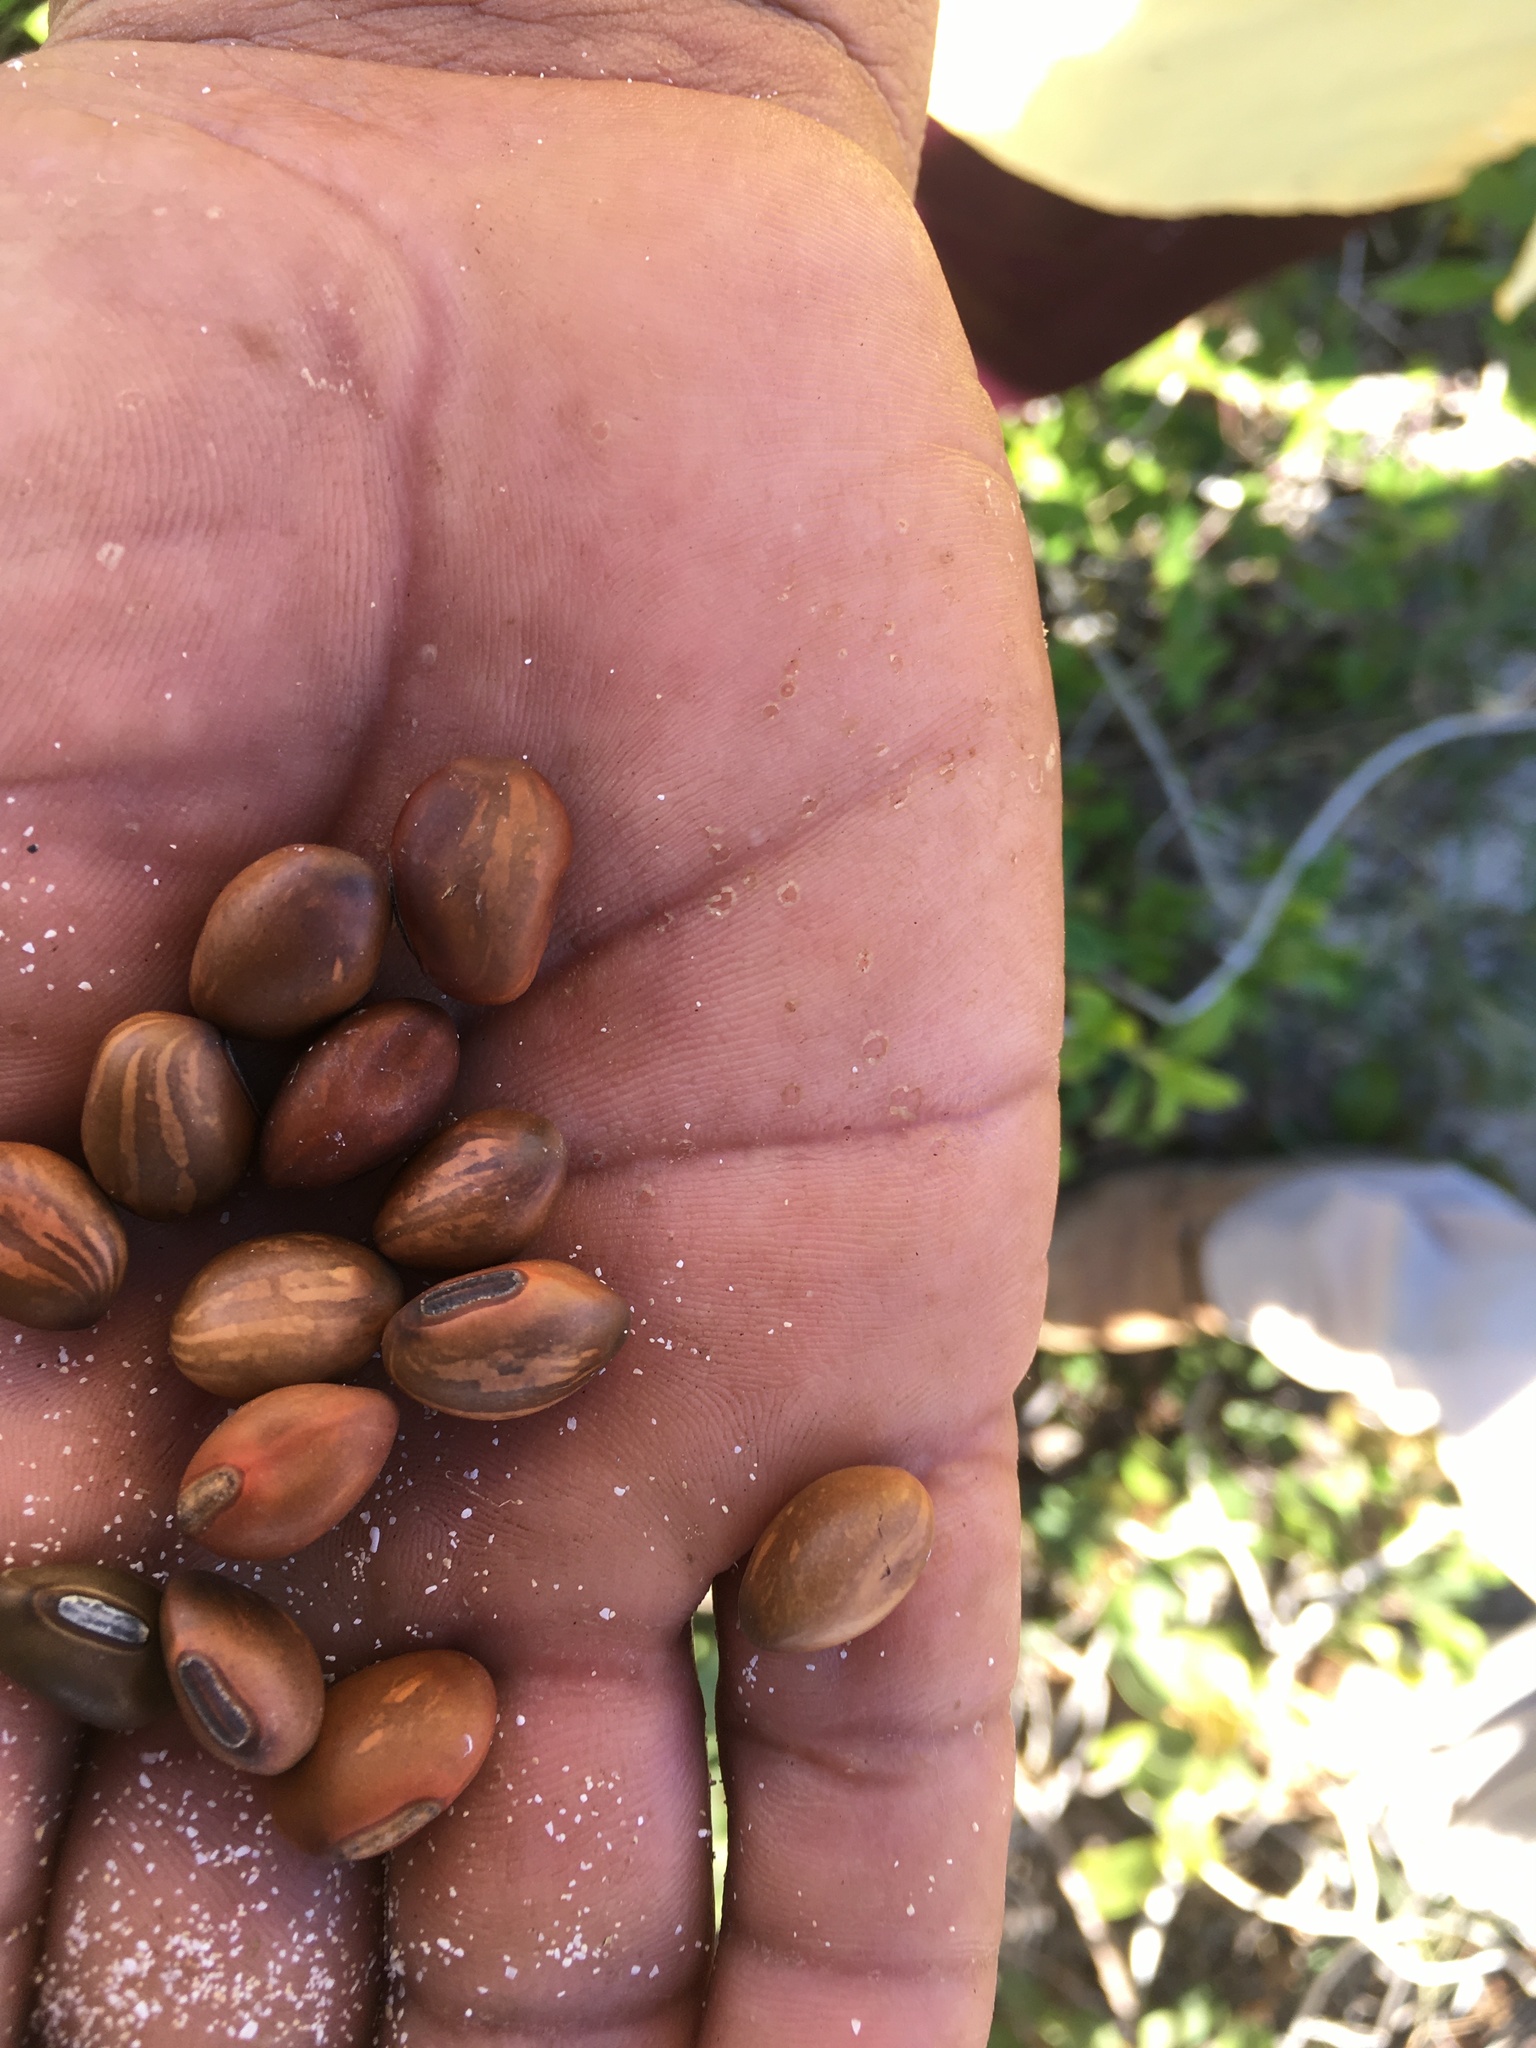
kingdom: Plantae
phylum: Tracheophyta
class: Magnoliopsida
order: Fabales
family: Fabaceae
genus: Canavalia
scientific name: Canavalia rosea
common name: Beach-bean
